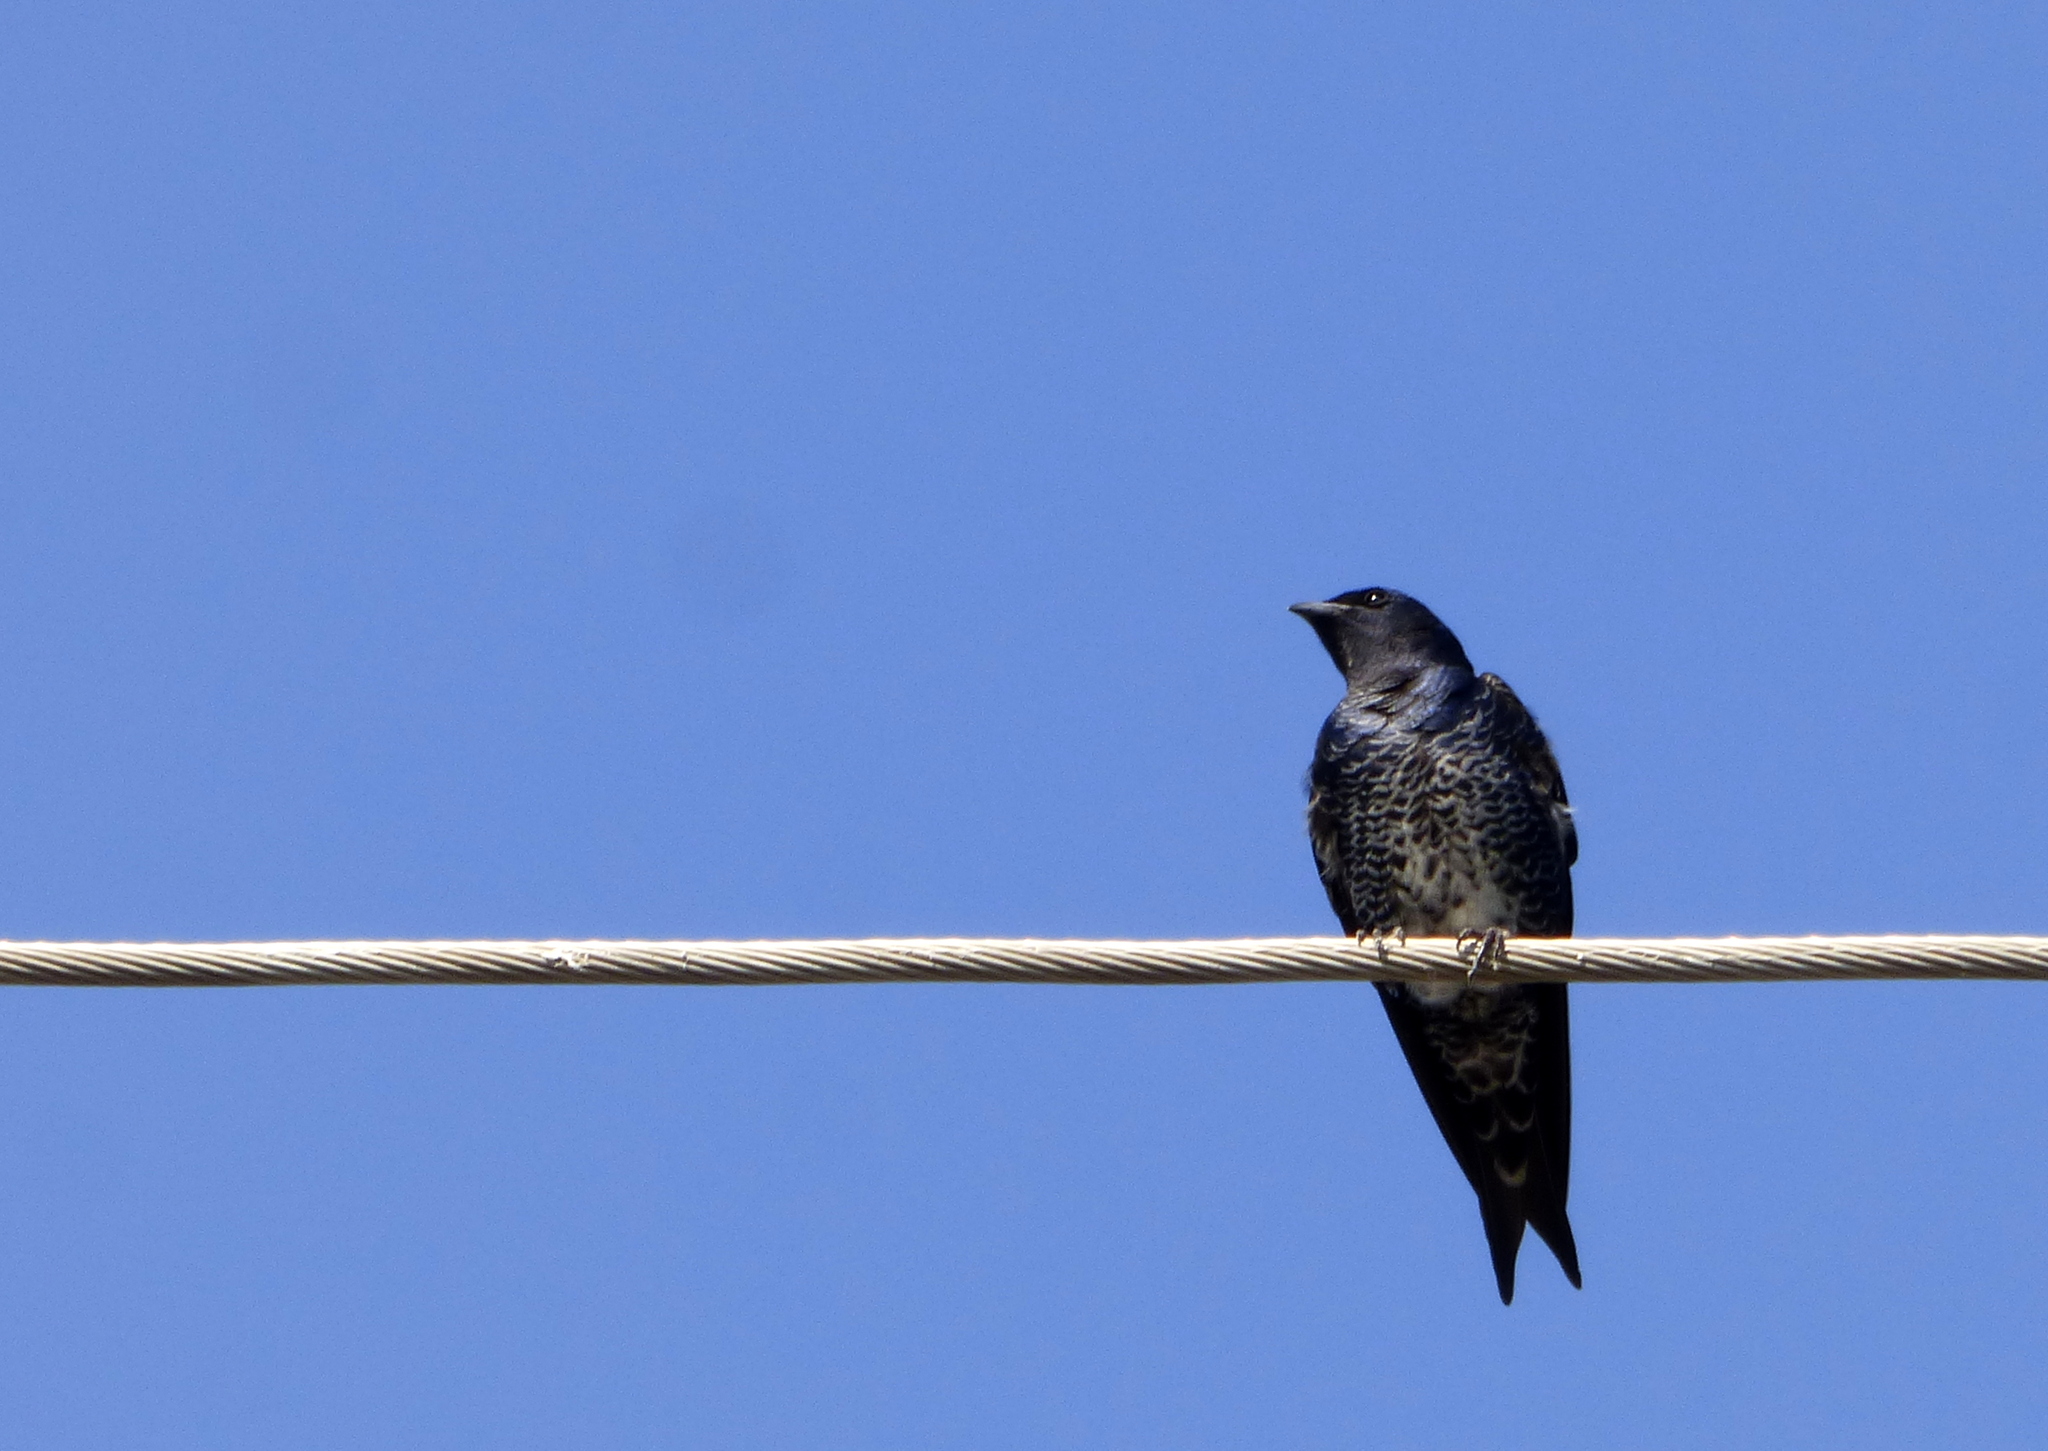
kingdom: Animalia
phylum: Chordata
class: Aves
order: Passeriformes
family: Hirundinidae
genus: Progne
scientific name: Progne elegans
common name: Southern martin
